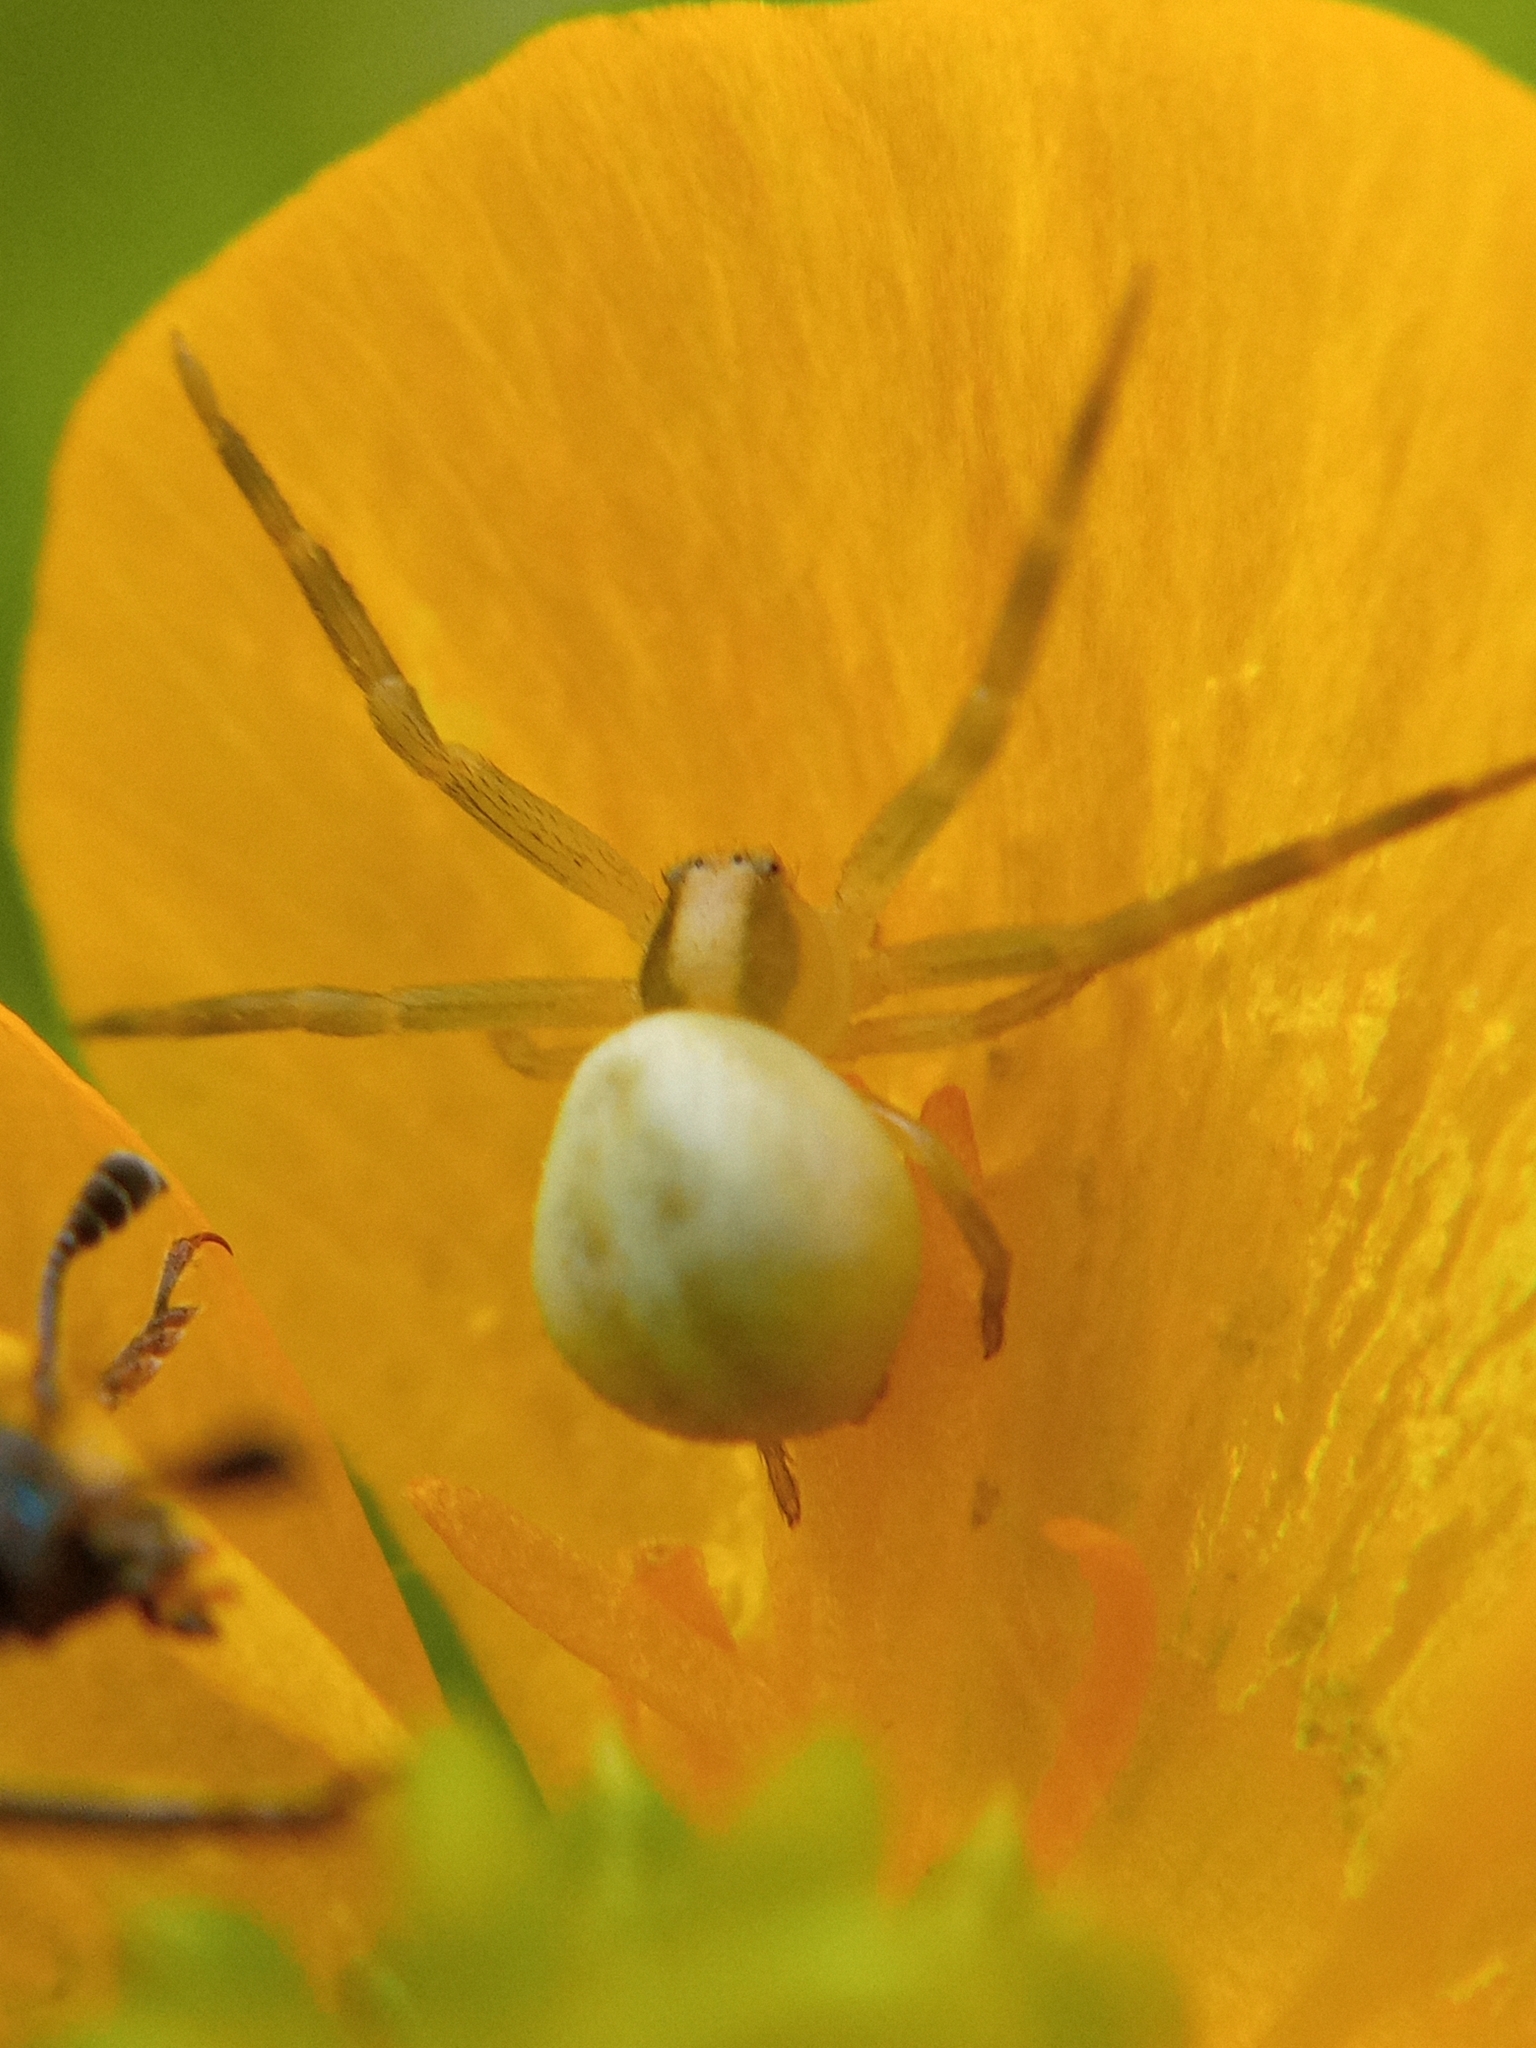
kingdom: Animalia
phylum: Arthropoda
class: Arachnida
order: Araneae
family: Thomisidae
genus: Misumena
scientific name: Misumena vatia
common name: Goldenrod crab spider
